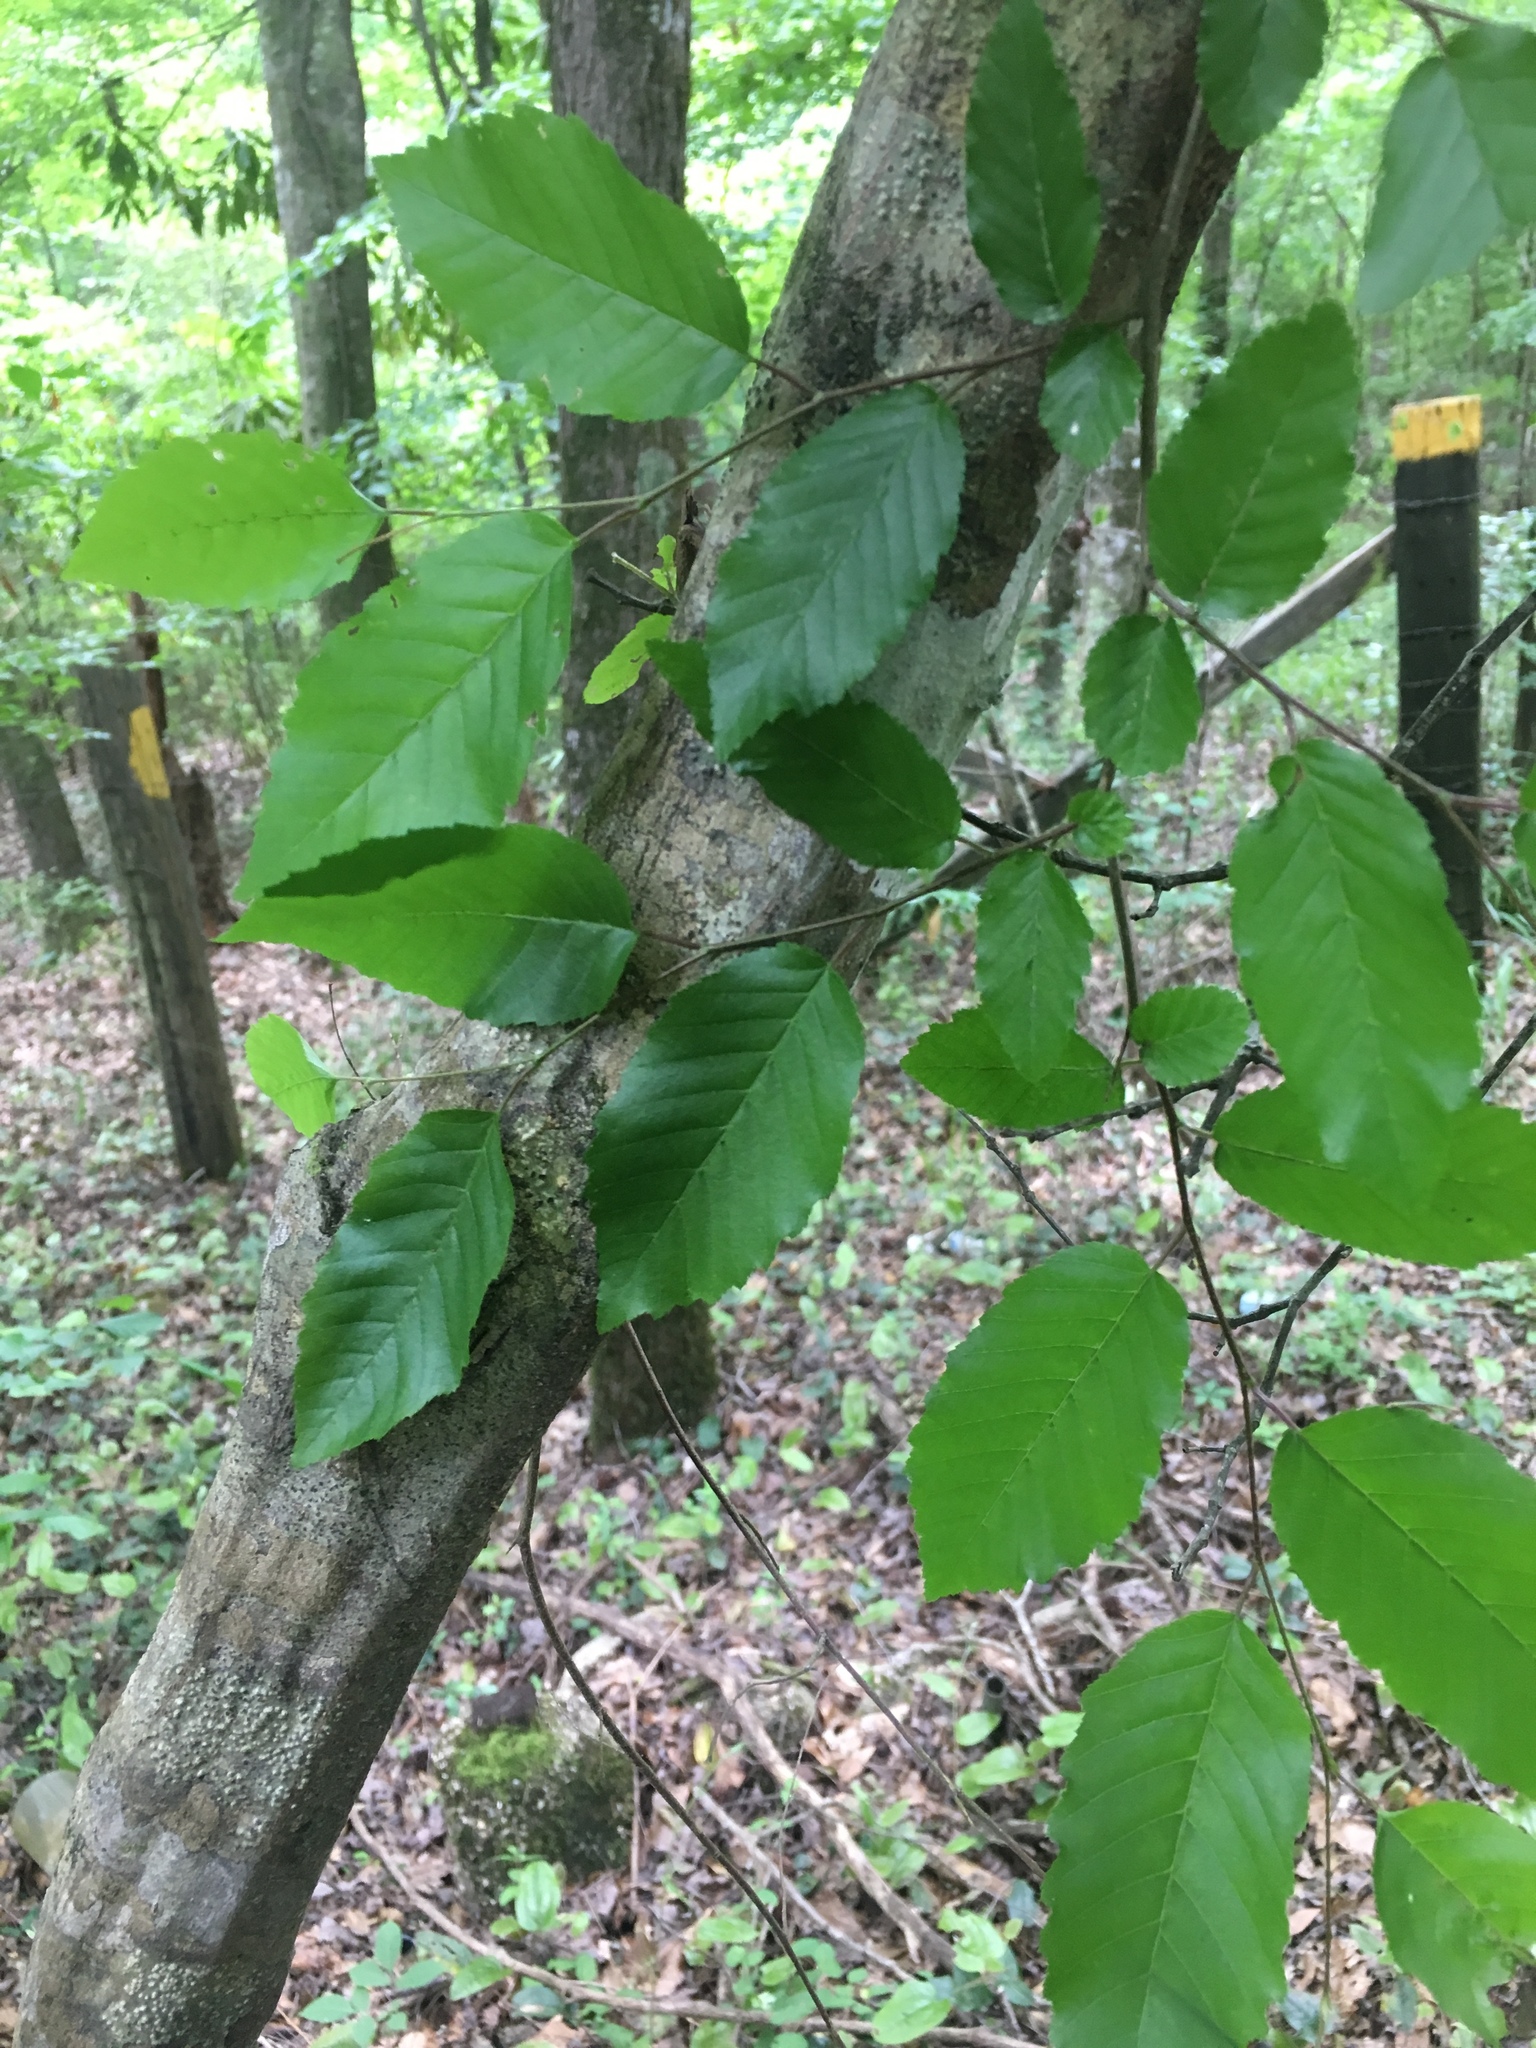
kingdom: Plantae
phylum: Tracheophyta
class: Magnoliopsida
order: Fagales
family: Betulaceae
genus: Carpinus
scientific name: Carpinus caroliniana
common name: American hornbeam
